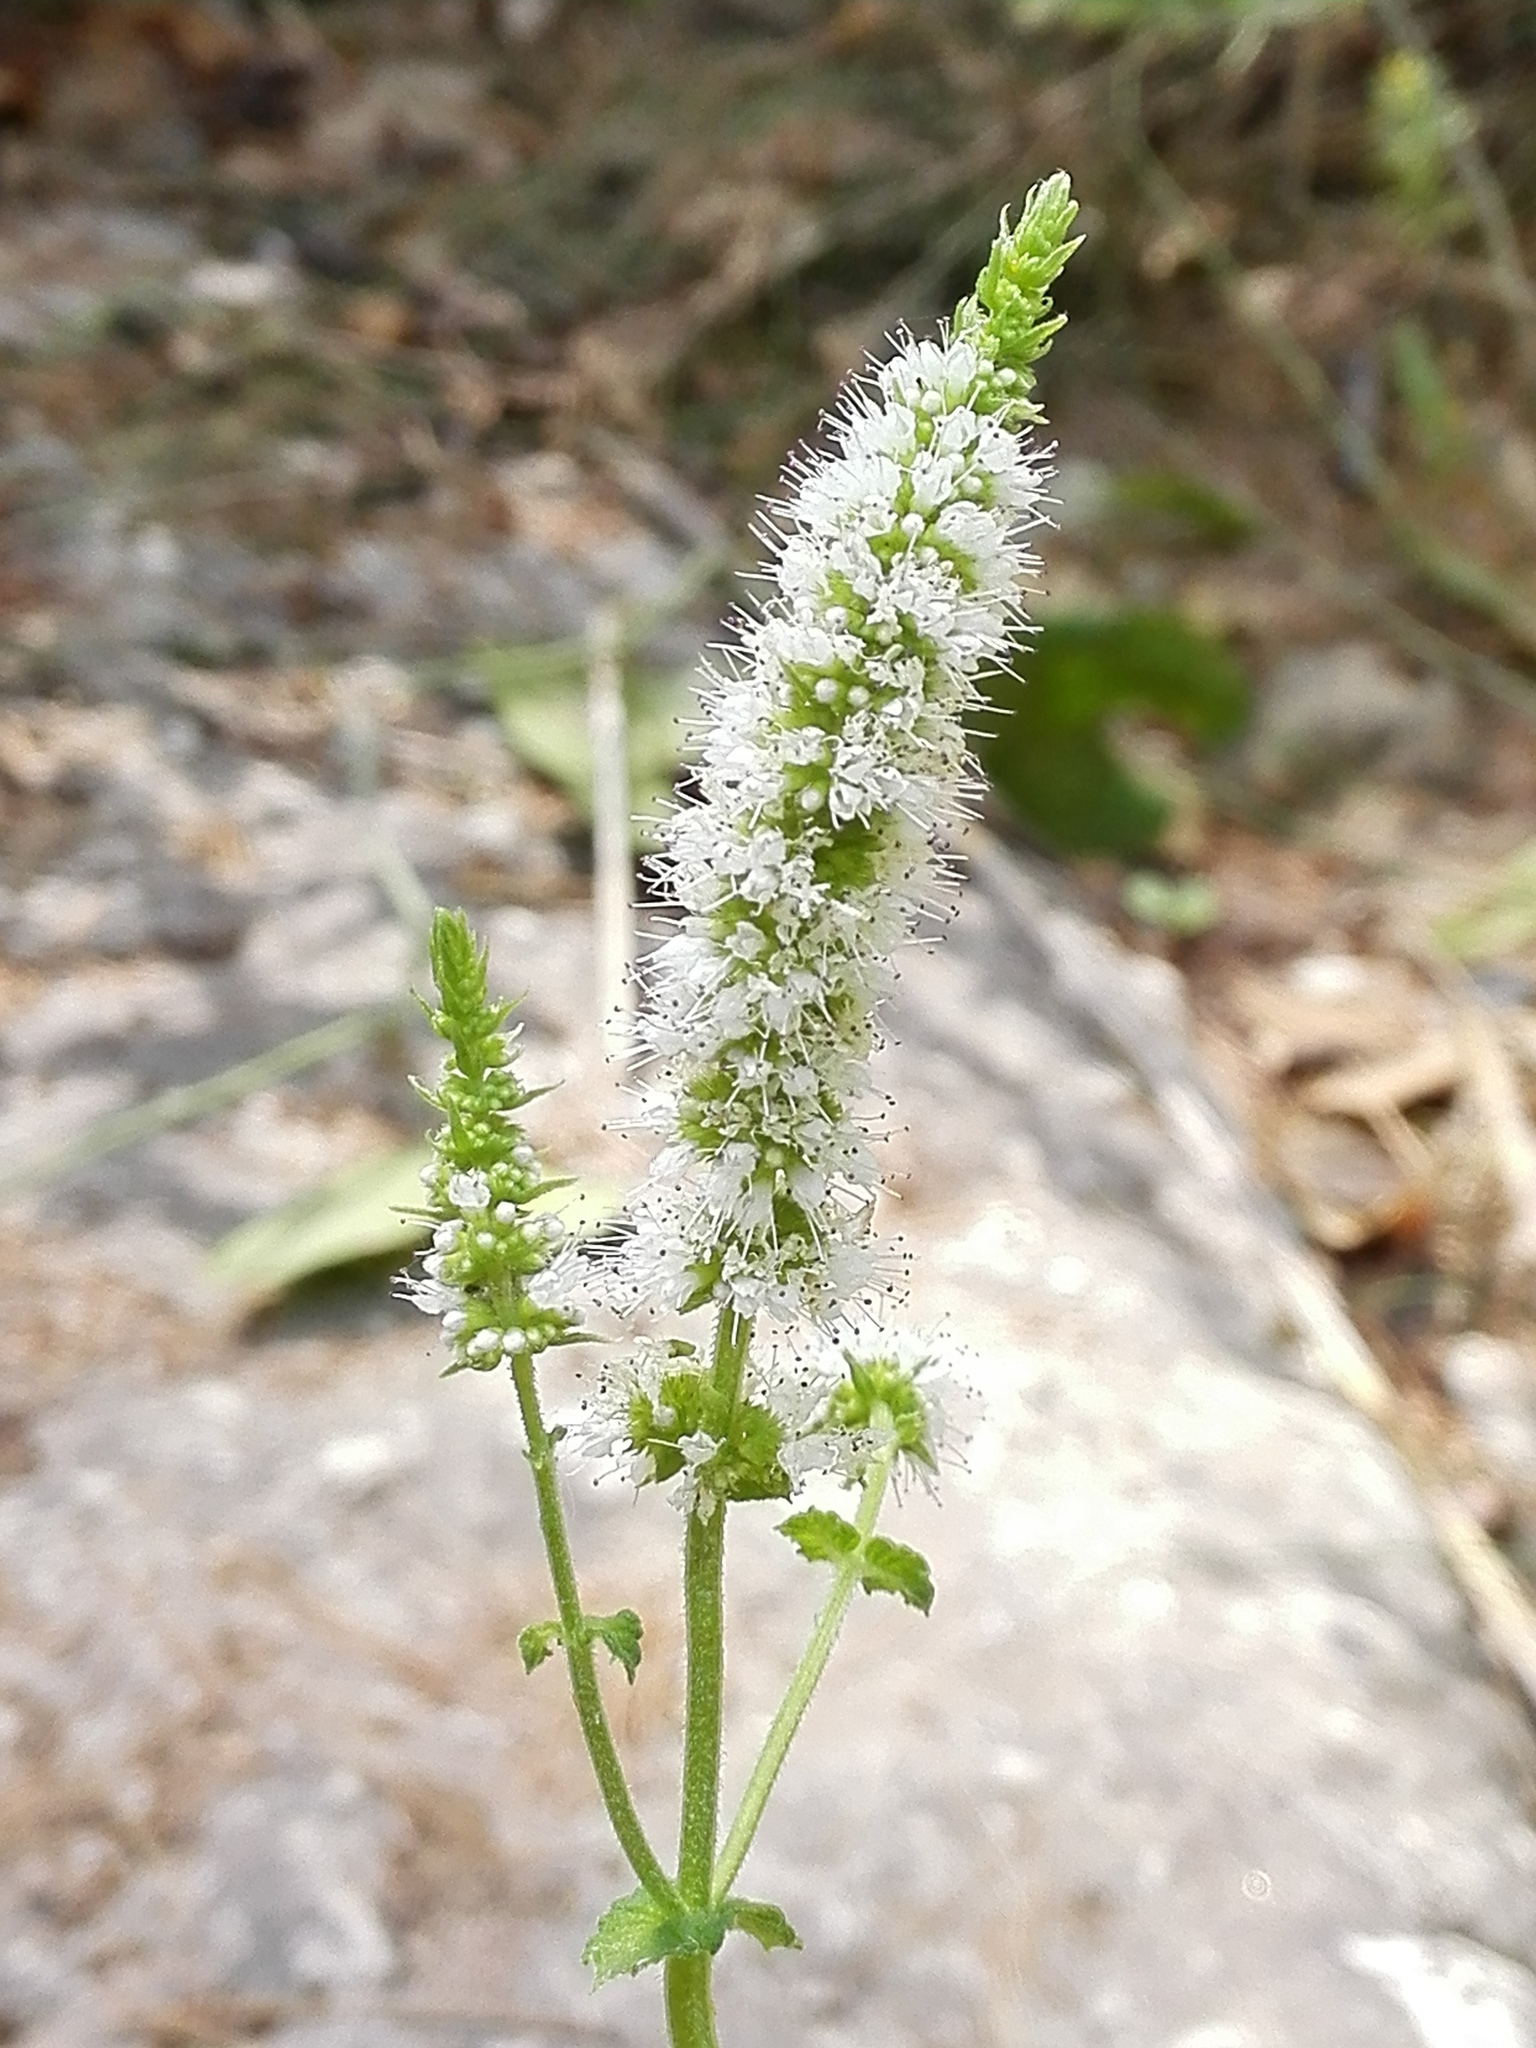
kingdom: Plantae
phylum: Tracheophyta
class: Magnoliopsida
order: Lamiales
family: Lamiaceae
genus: Mentha
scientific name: Mentha suaveolens
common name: Apple mint
